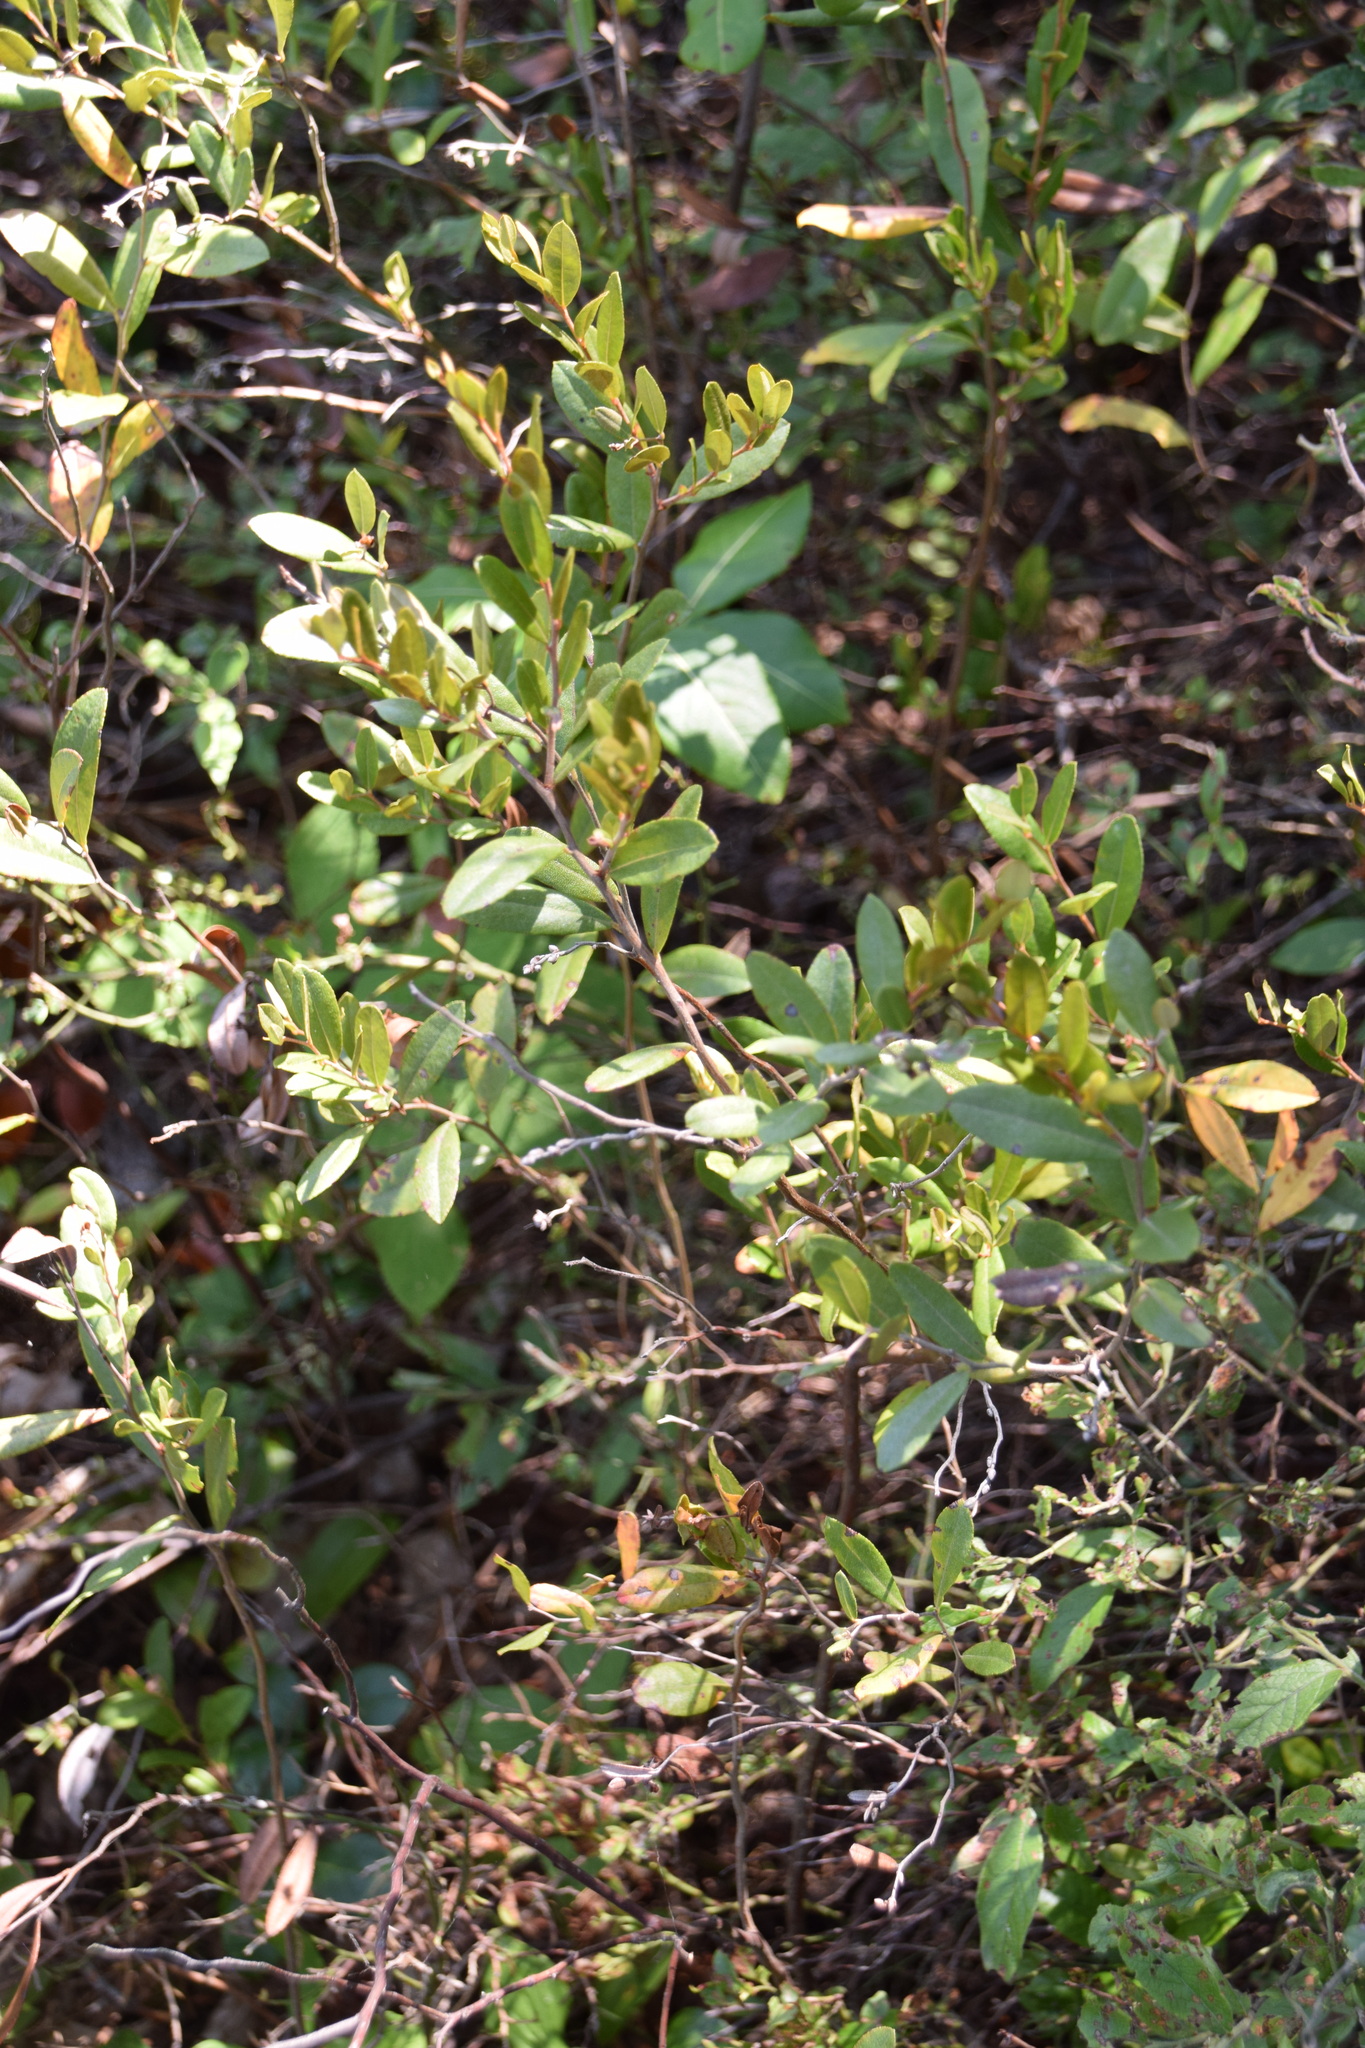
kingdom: Plantae
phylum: Tracheophyta
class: Magnoliopsida
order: Ericales
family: Ericaceae
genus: Chamaedaphne
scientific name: Chamaedaphne calyculata
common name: Leatherleaf
